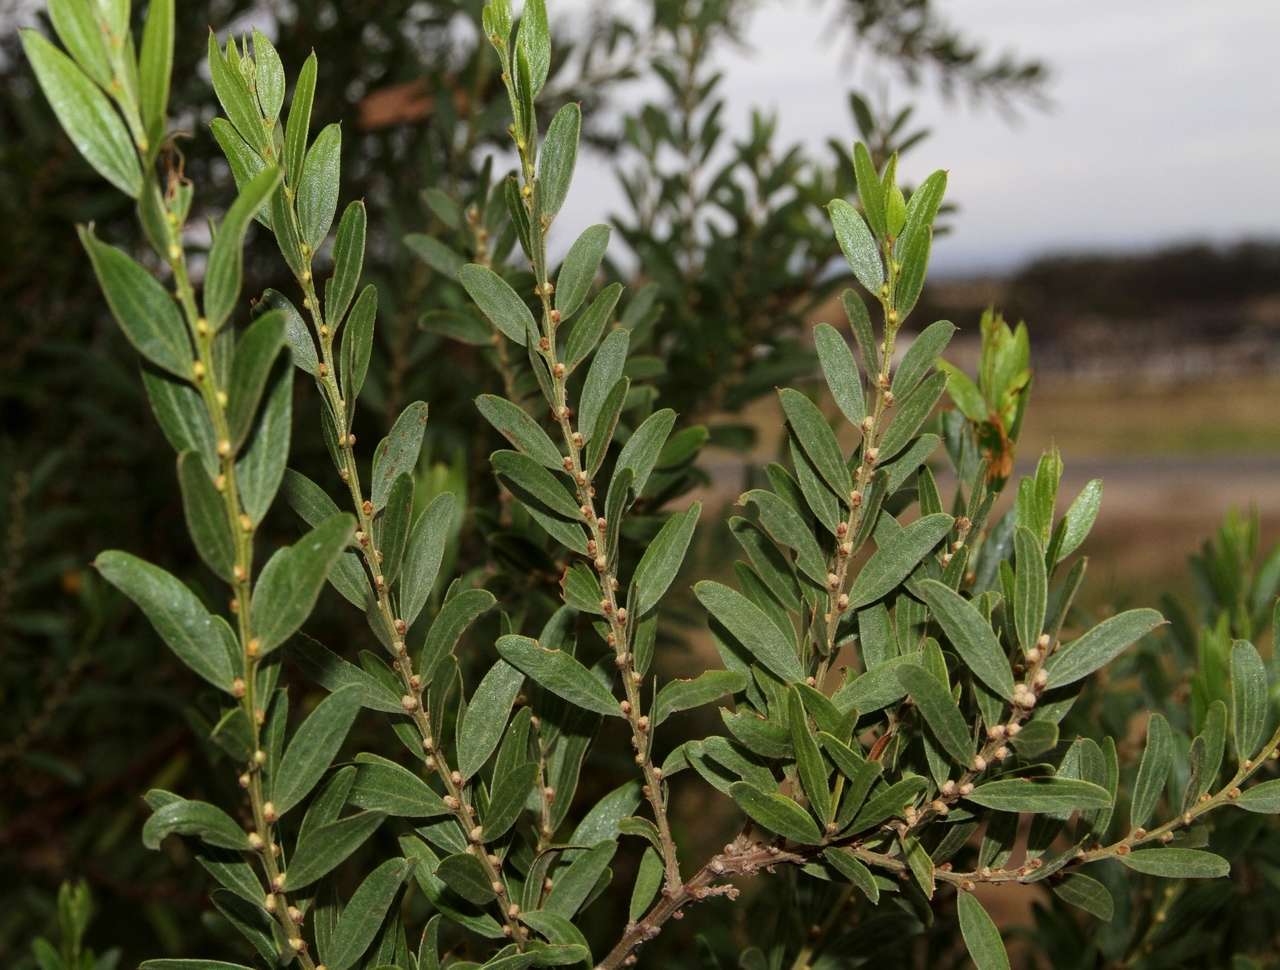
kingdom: Plantae
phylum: Tracheophyta
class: Magnoliopsida
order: Fabales
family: Fabaceae
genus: Acacia
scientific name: Acacia rostriformis
